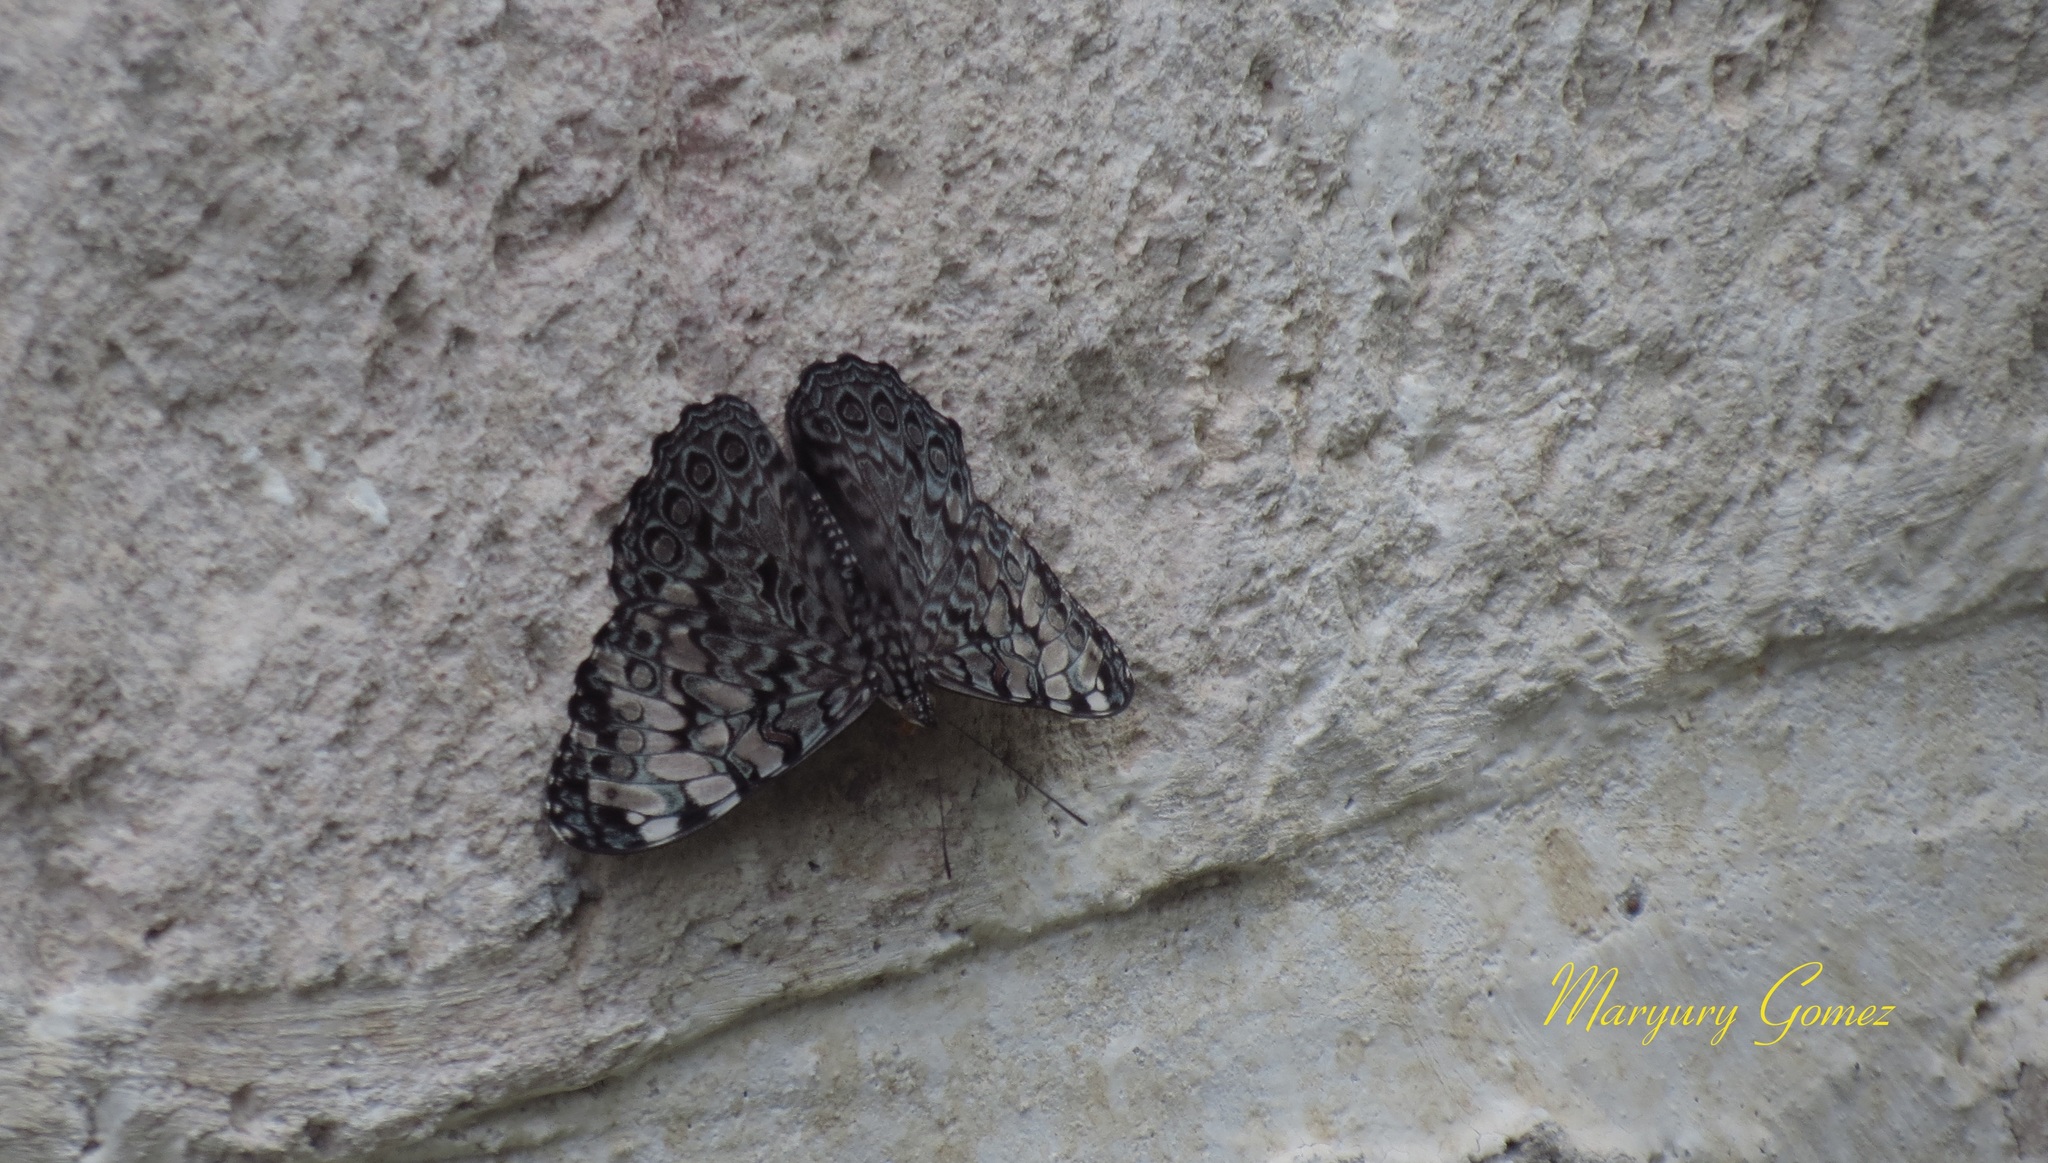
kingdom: Animalia
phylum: Arthropoda
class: Insecta
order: Lepidoptera
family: Nymphalidae
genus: Hamadryas
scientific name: Hamadryas guatemalena
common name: Guatemalan cracker
